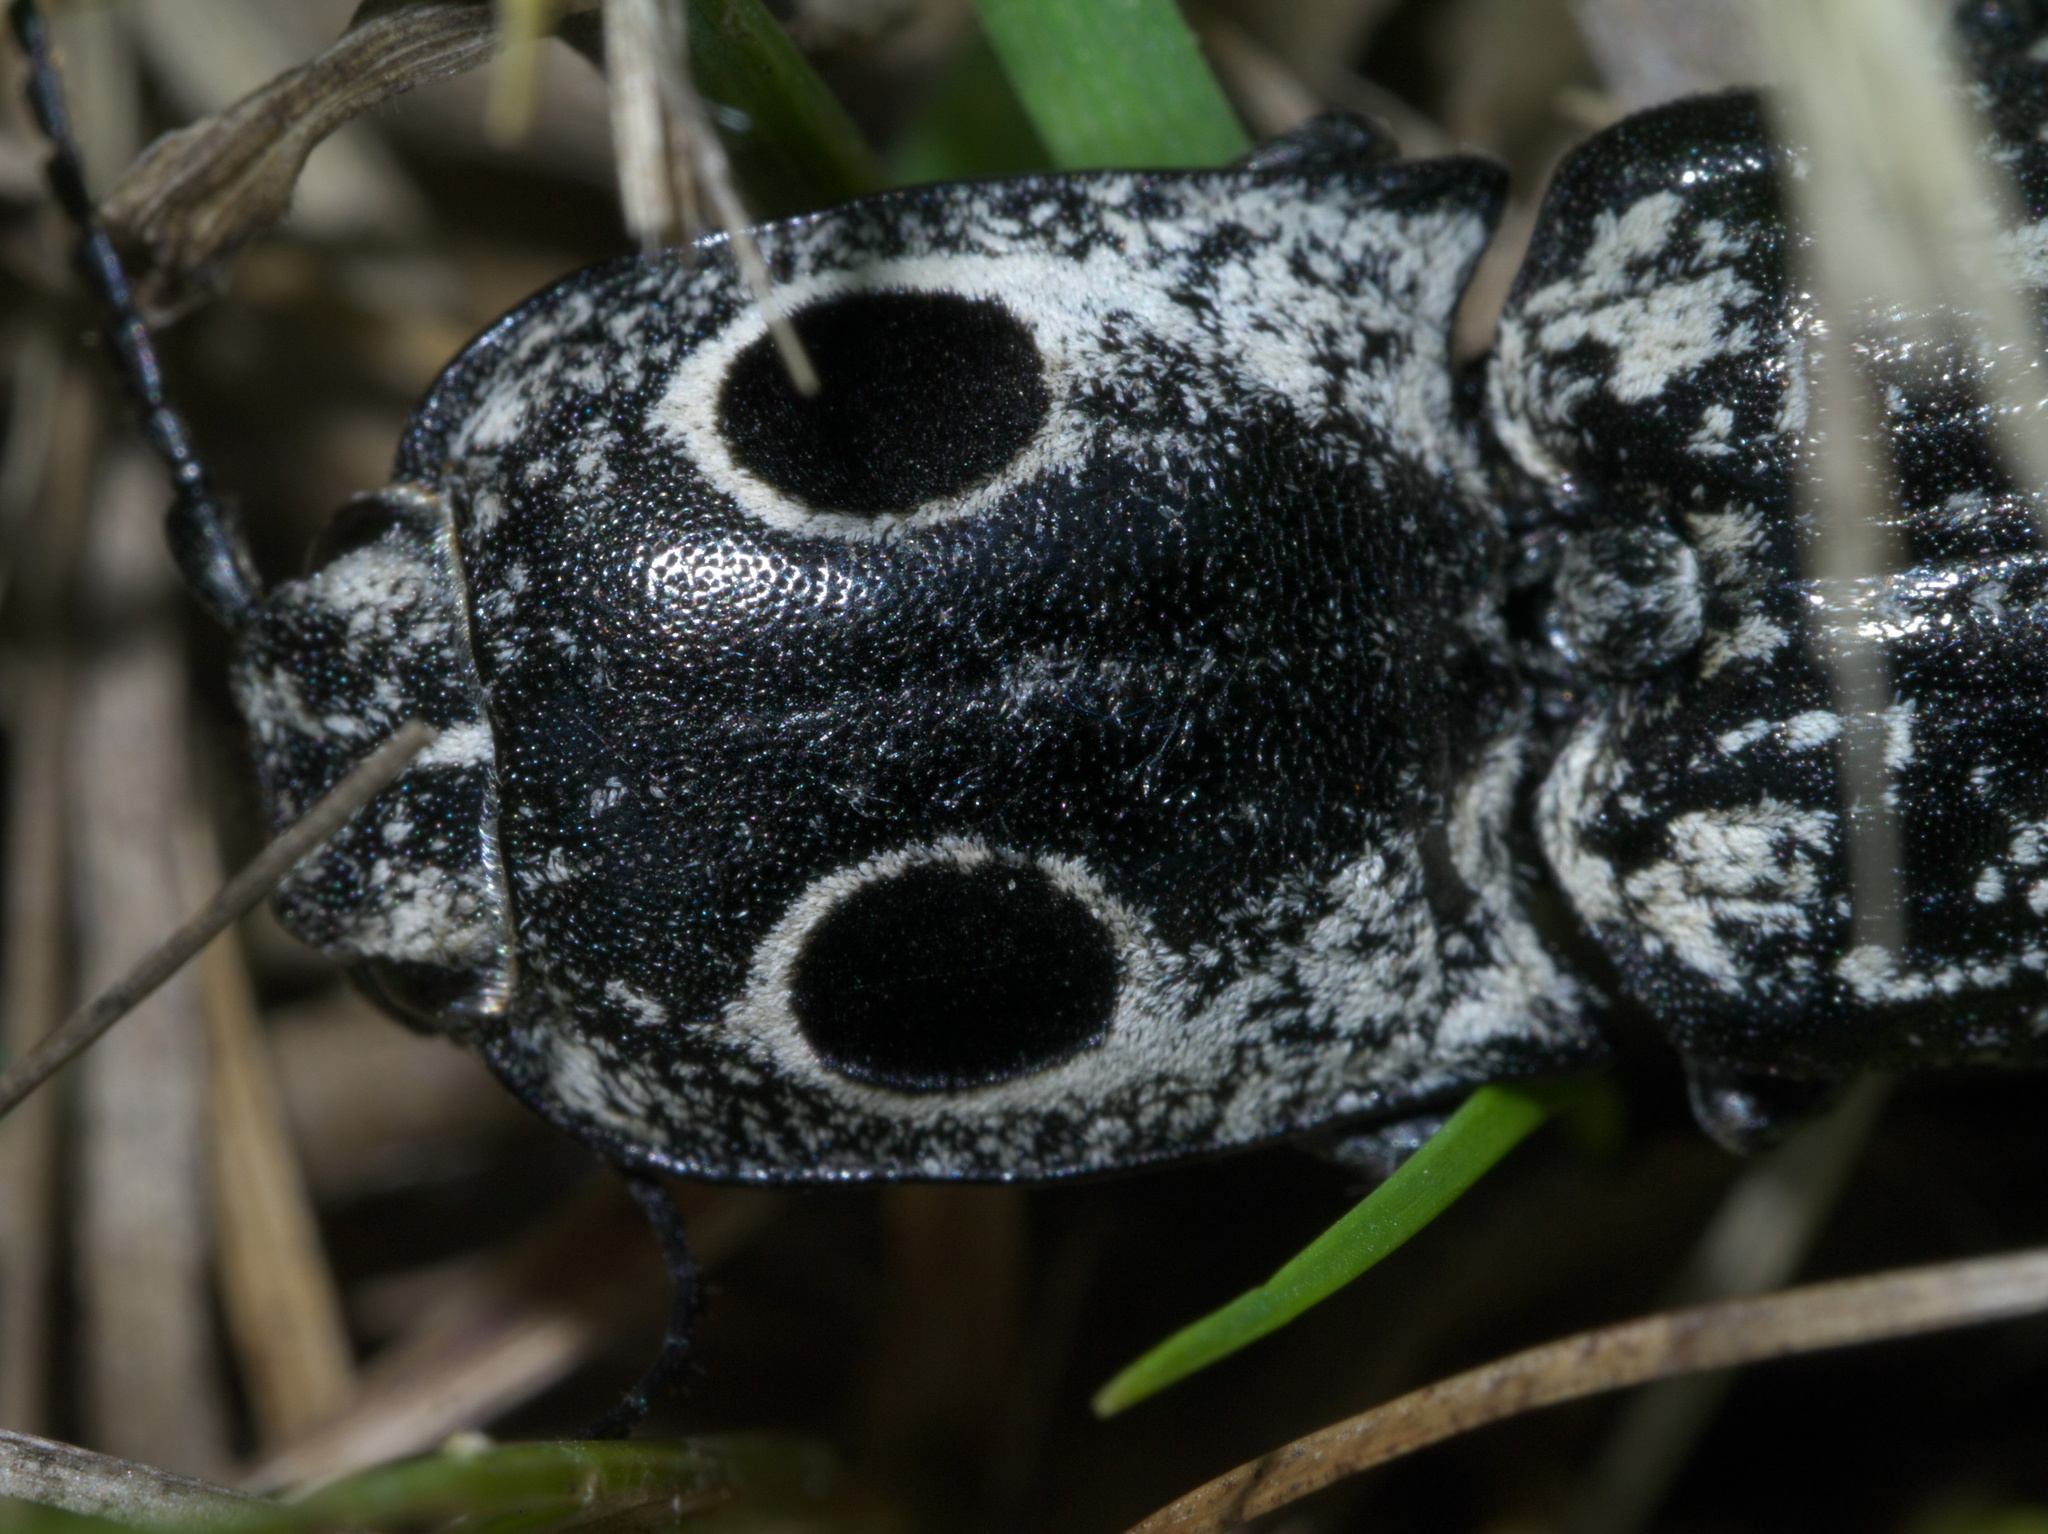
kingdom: Animalia
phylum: Arthropoda
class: Insecta
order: Coleoptera
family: Elateridae
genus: Alaus
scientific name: Alaus oculatus
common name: Eastern eyed click beetle
